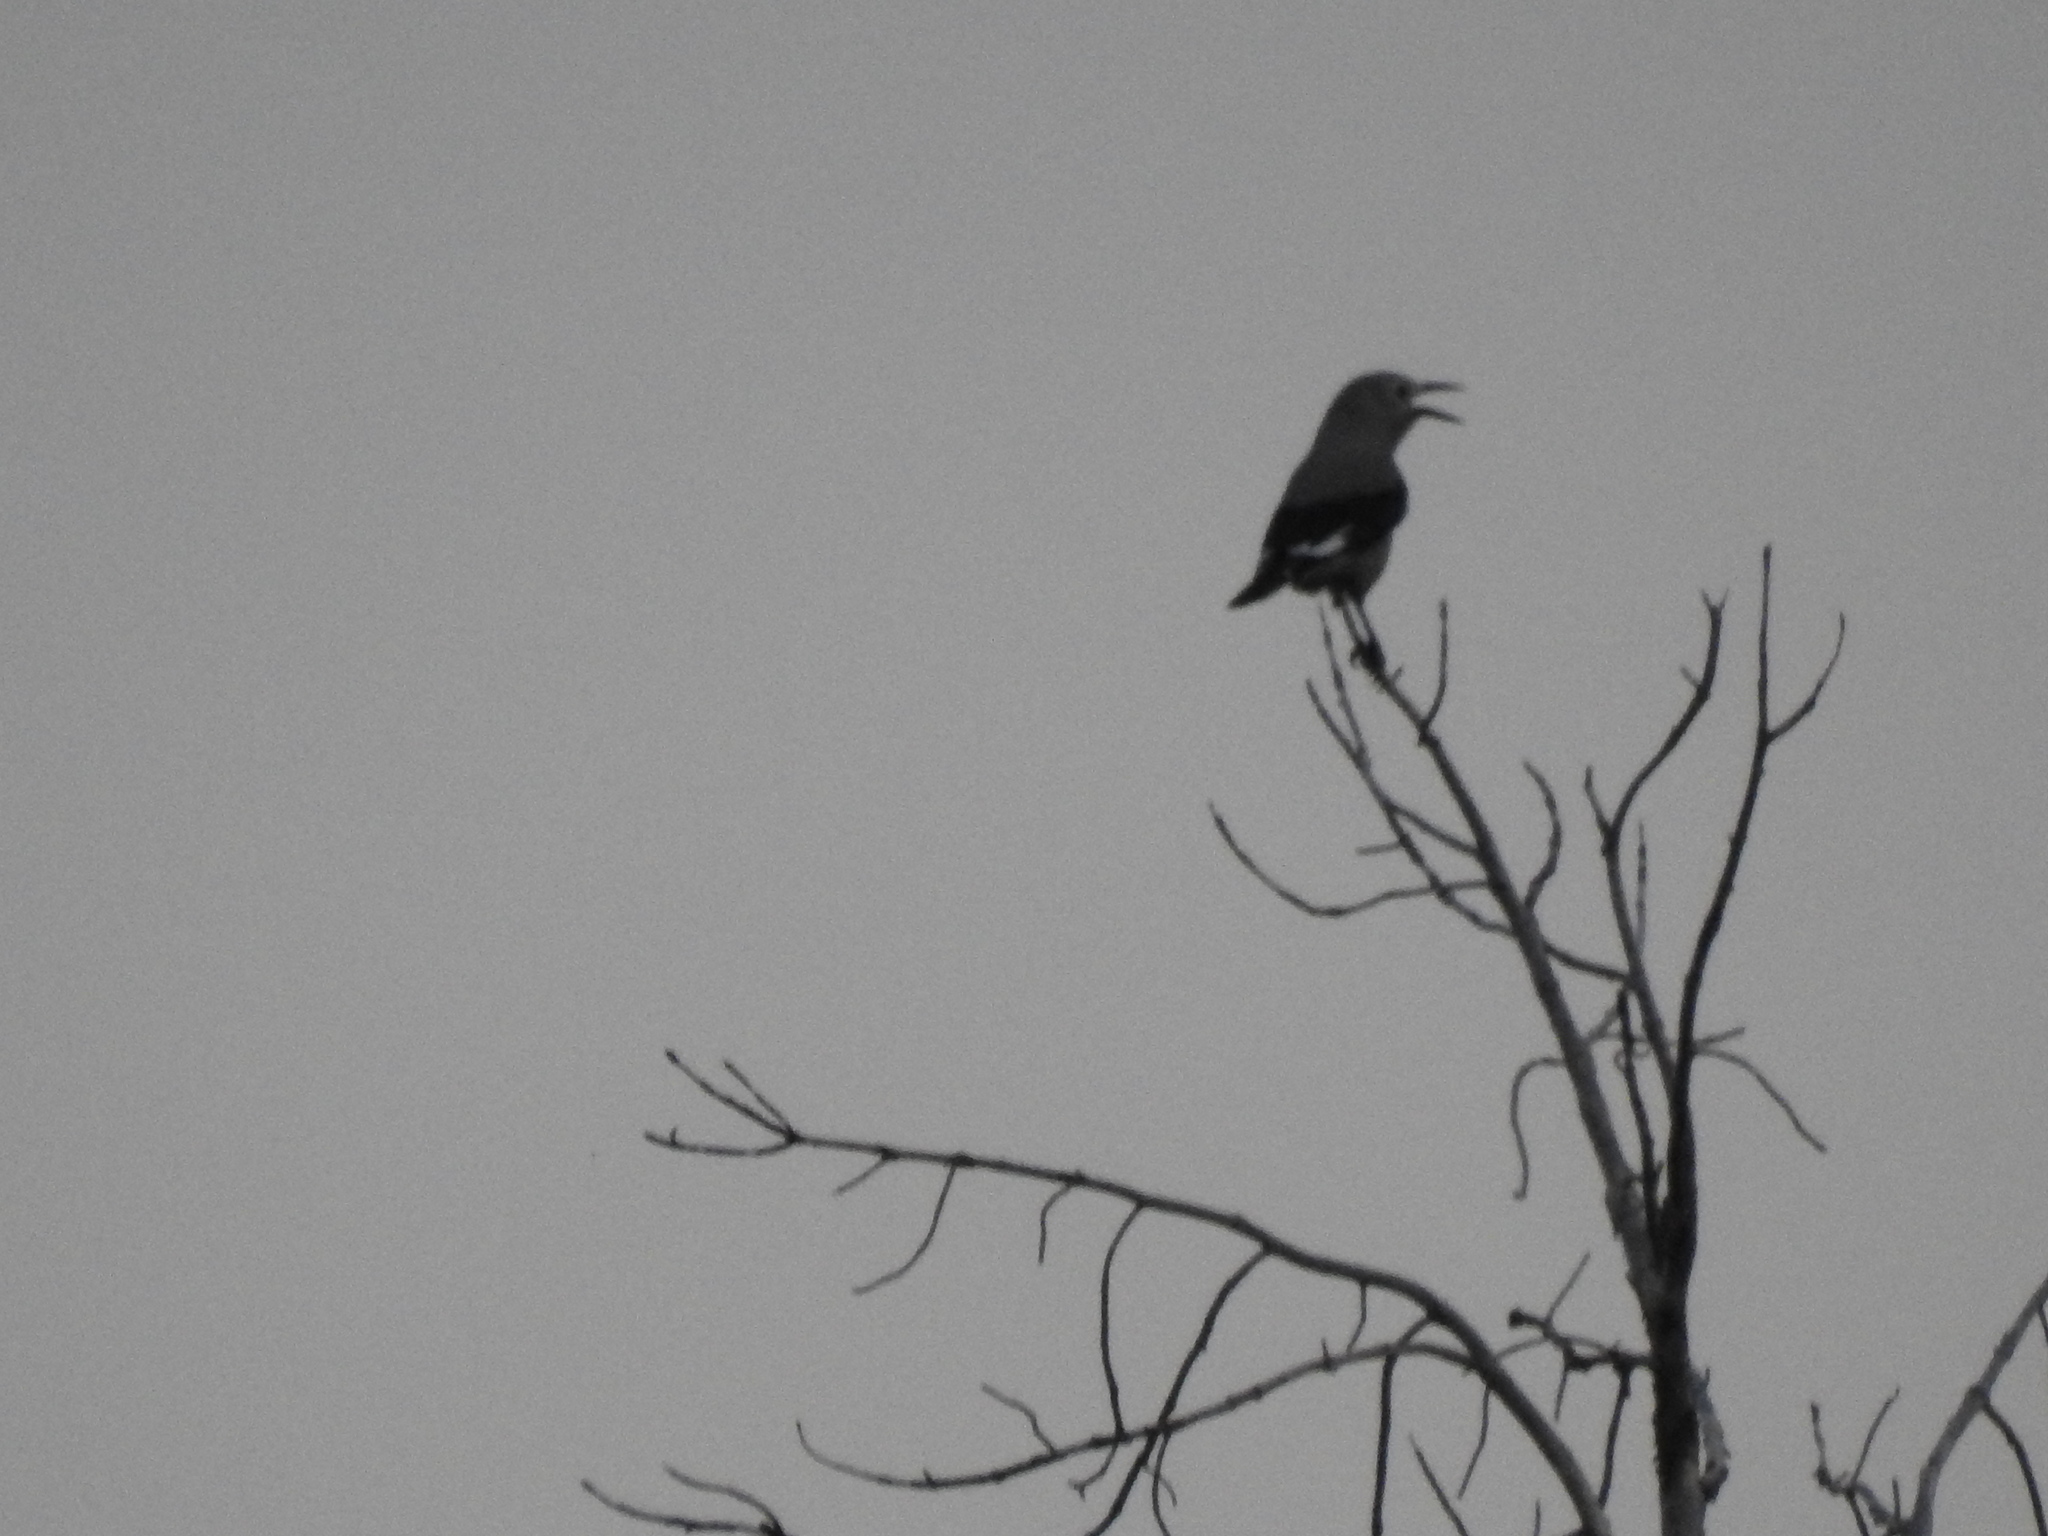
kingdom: Animalia
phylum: Chordata
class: Aves
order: Passeriformes
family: Corvidae
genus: Nucifraga
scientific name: Nucifraga columbiana
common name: Clark's nutcracker
